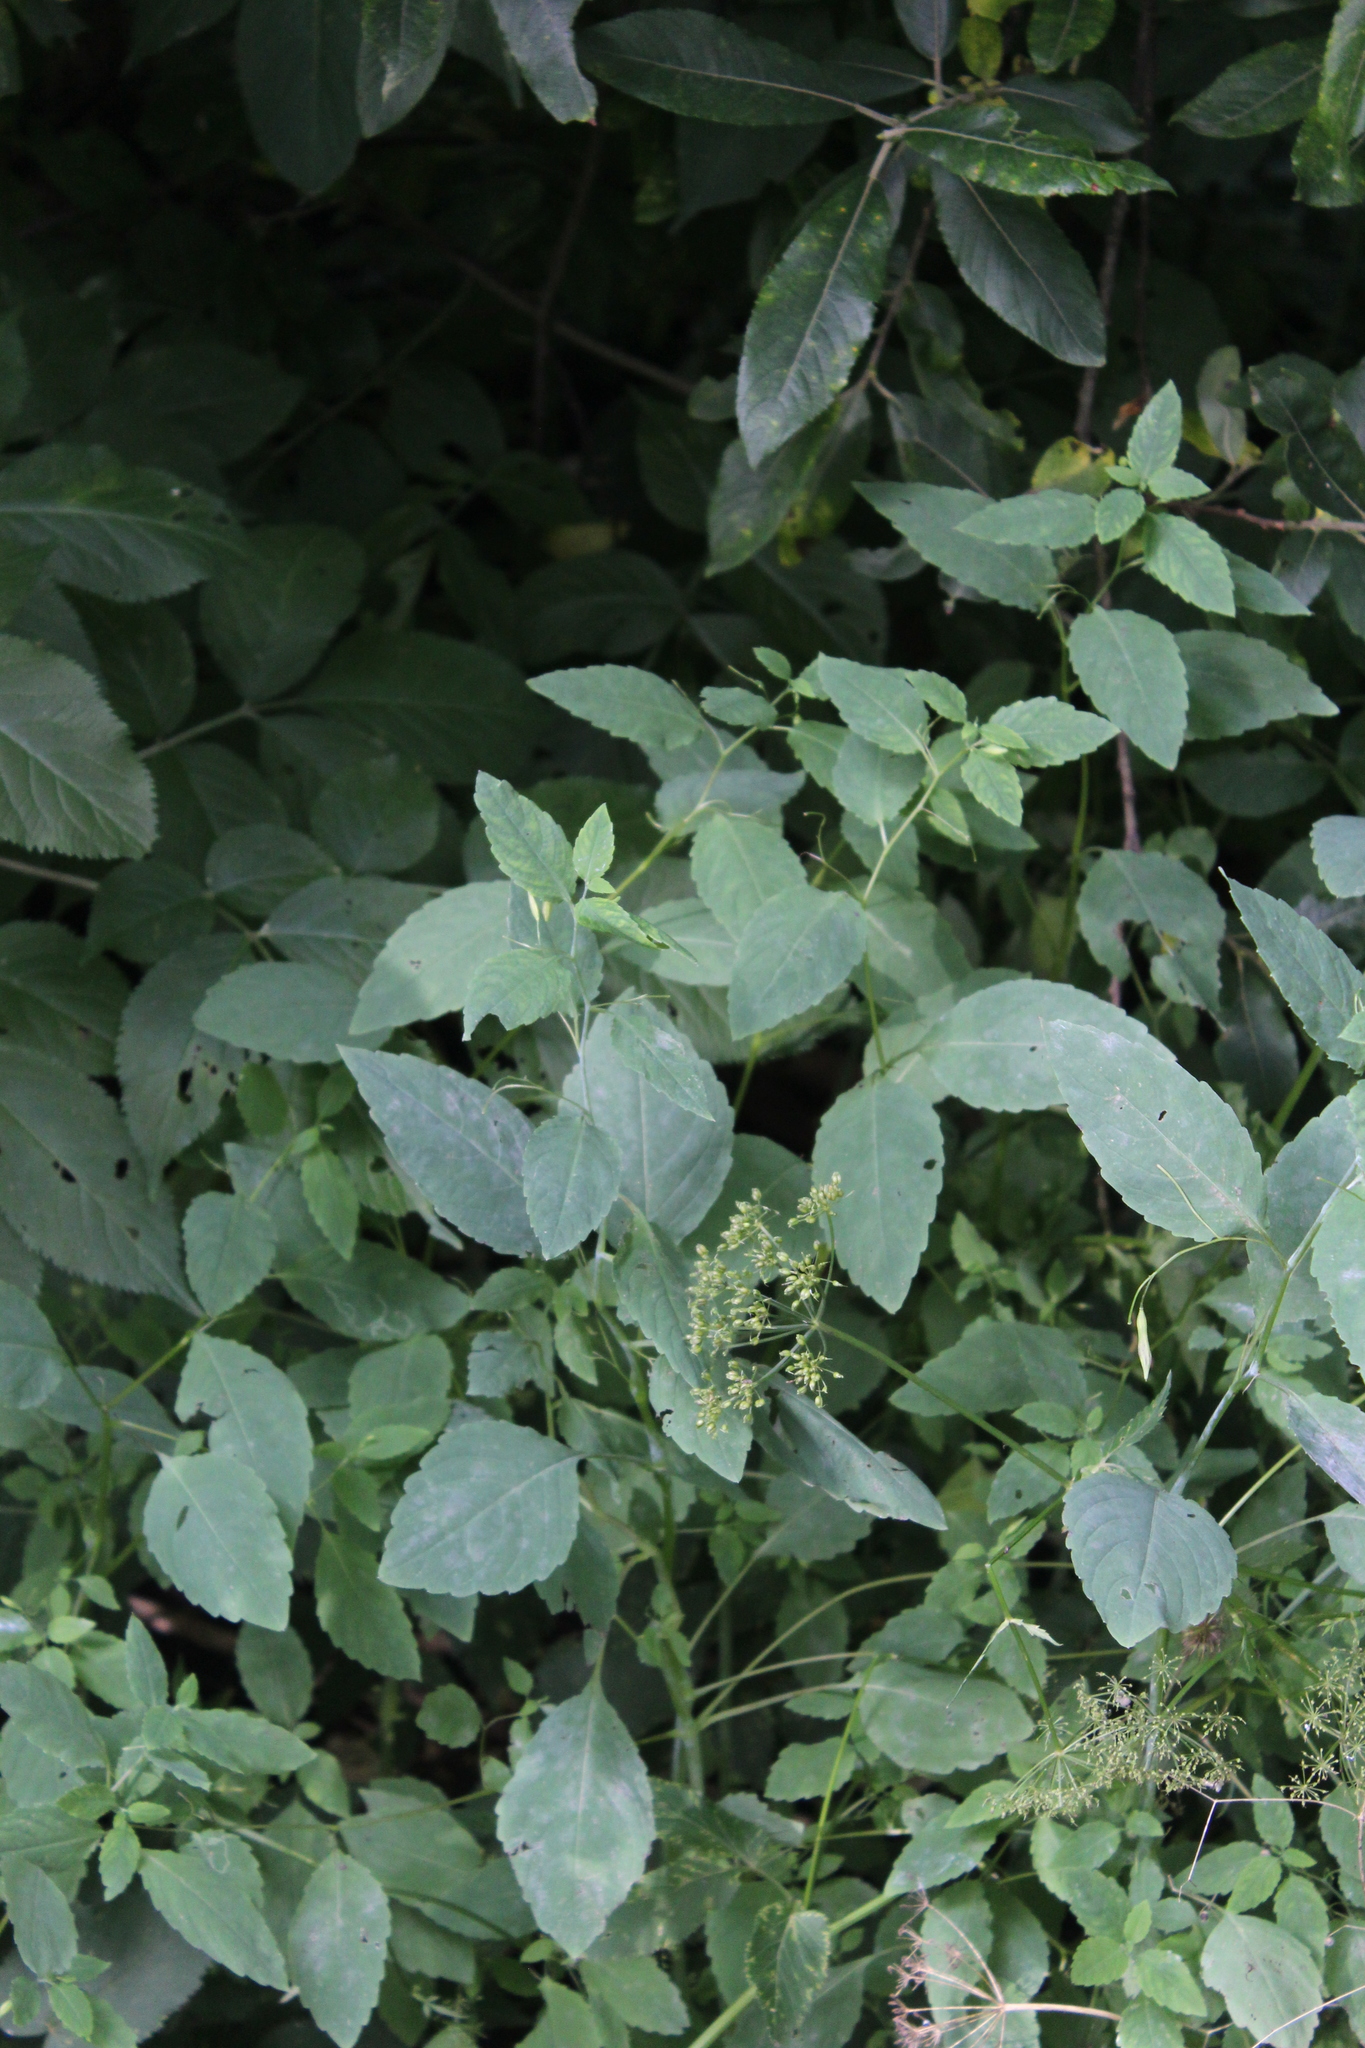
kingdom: Plantae
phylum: Tracheophyta
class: Magnoliopsida
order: Ericales
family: Balsaminaceae
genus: Impatiens
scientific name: Impatiens noli-tangere
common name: Touch-me-not balsam
